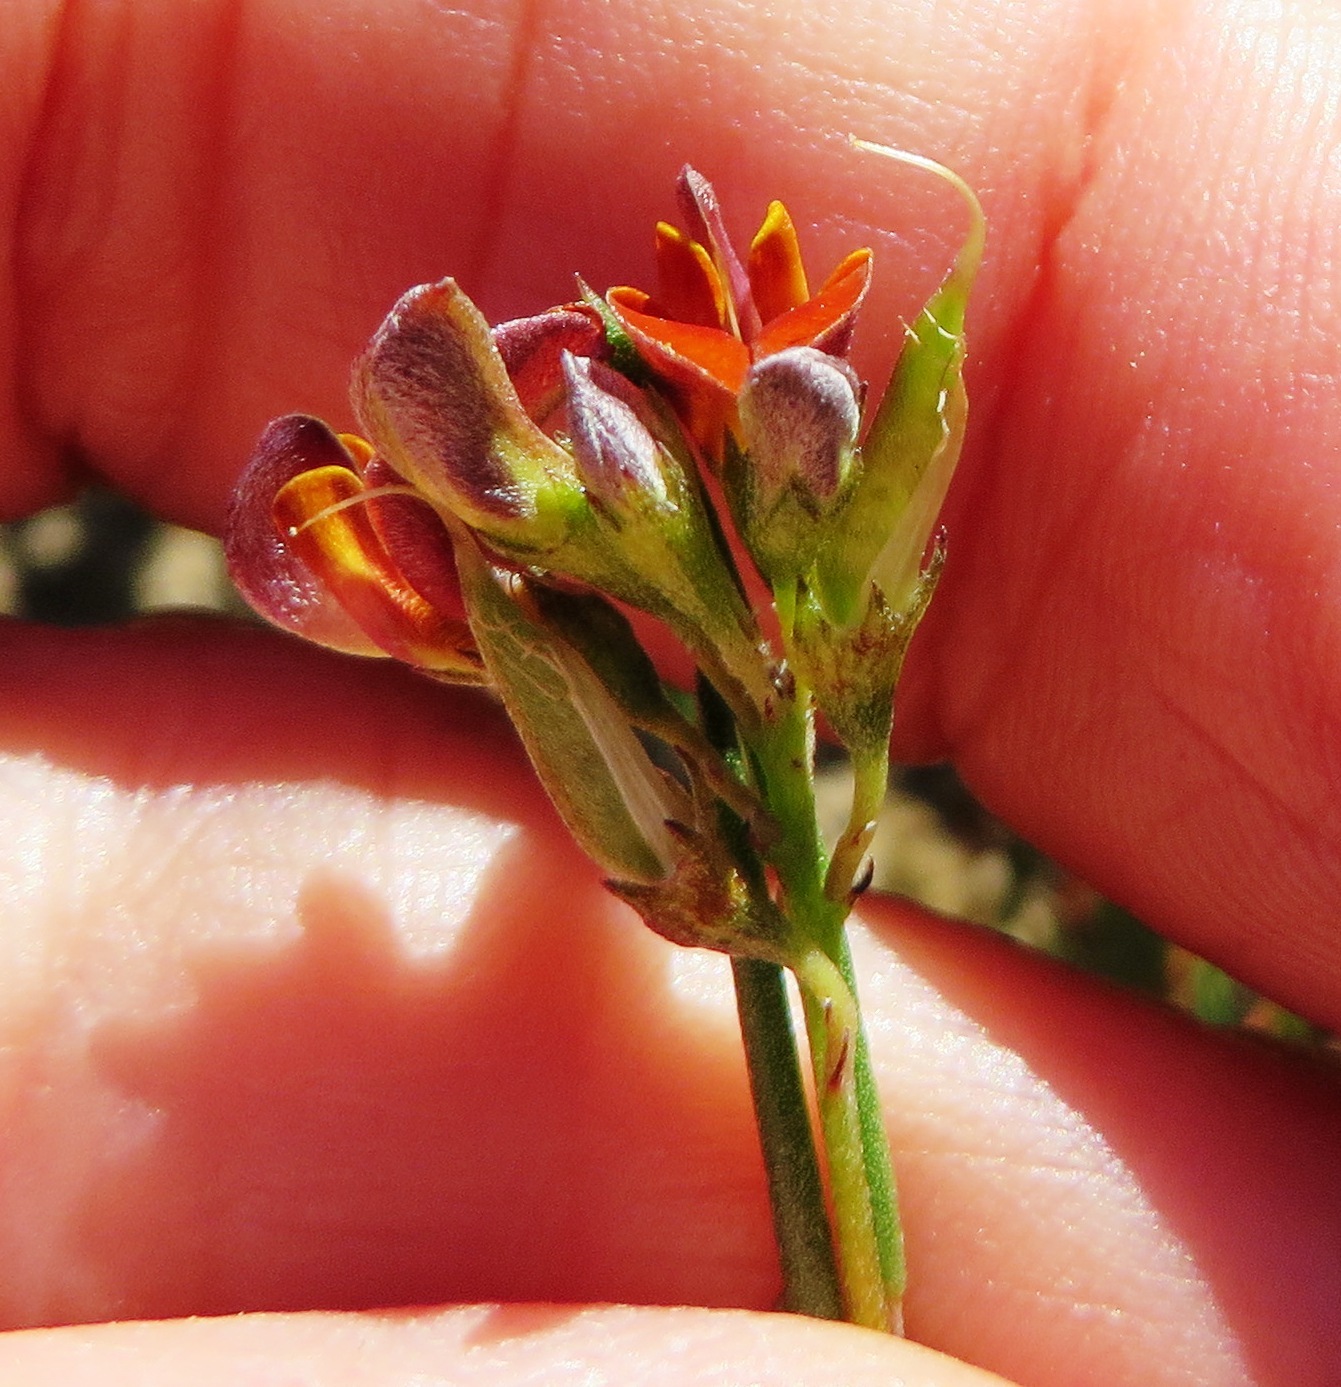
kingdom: Plantae
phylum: Tracheophyta
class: Magnoliopsida
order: Fabales
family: Fabaceae
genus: Aspalathus
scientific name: Aspalathus linearis
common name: Rooibos-tea
